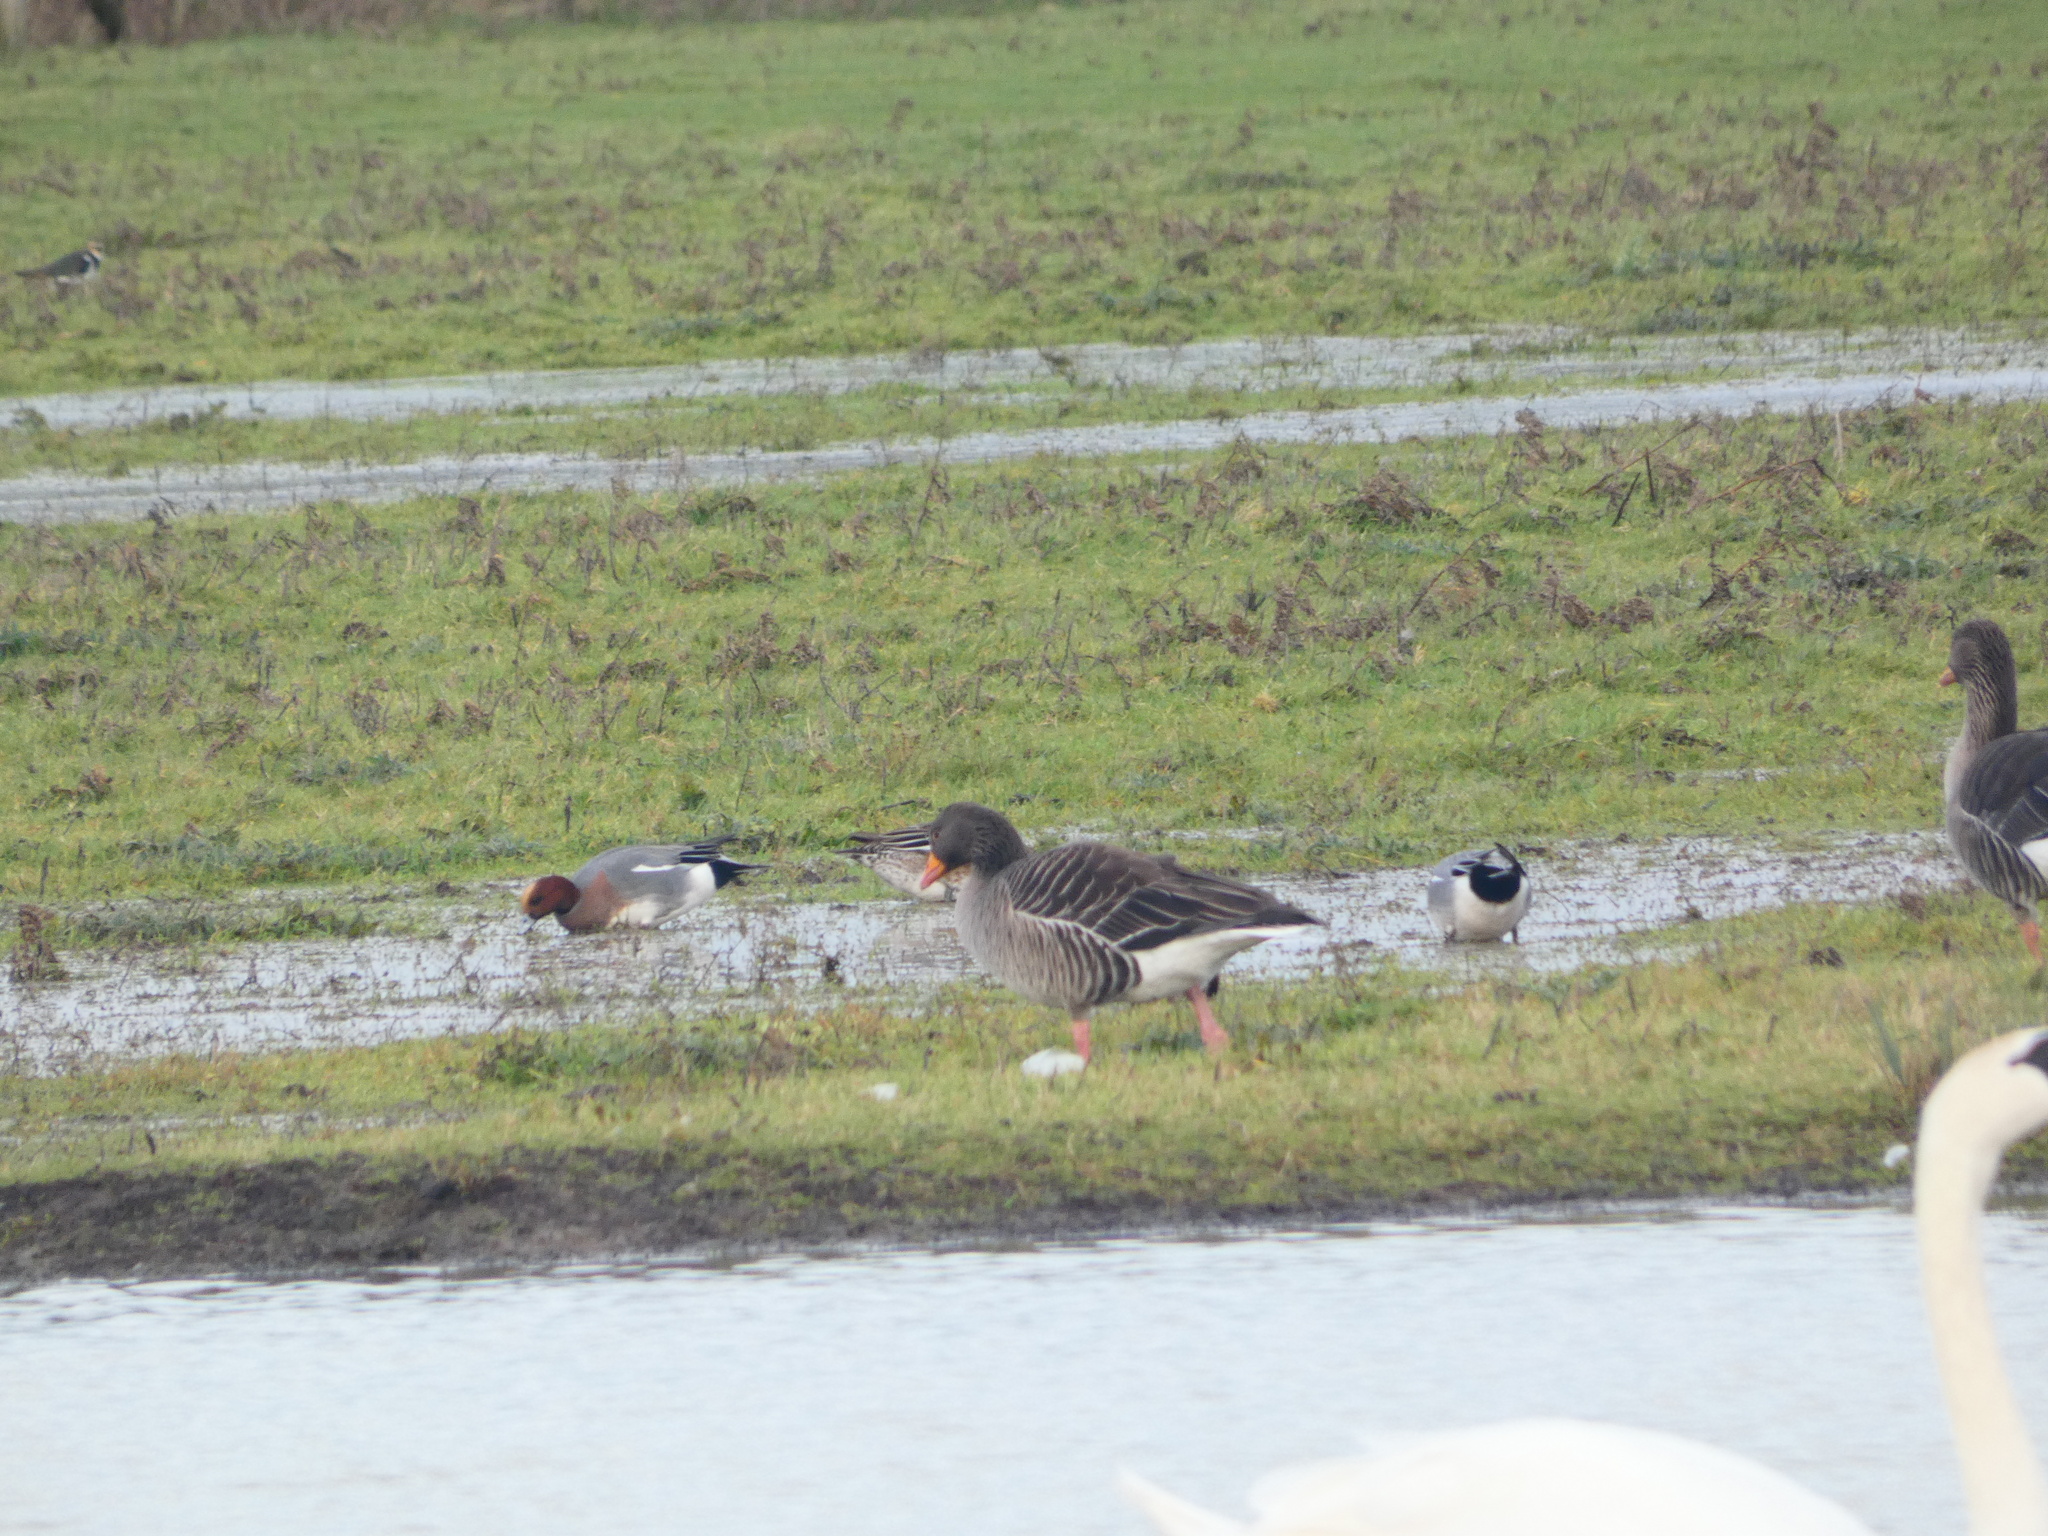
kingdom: Animalia
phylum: Chordata
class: Aves
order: Anseriformes
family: Anatidae
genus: Anser
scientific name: Anser anser
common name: Greylag goose
